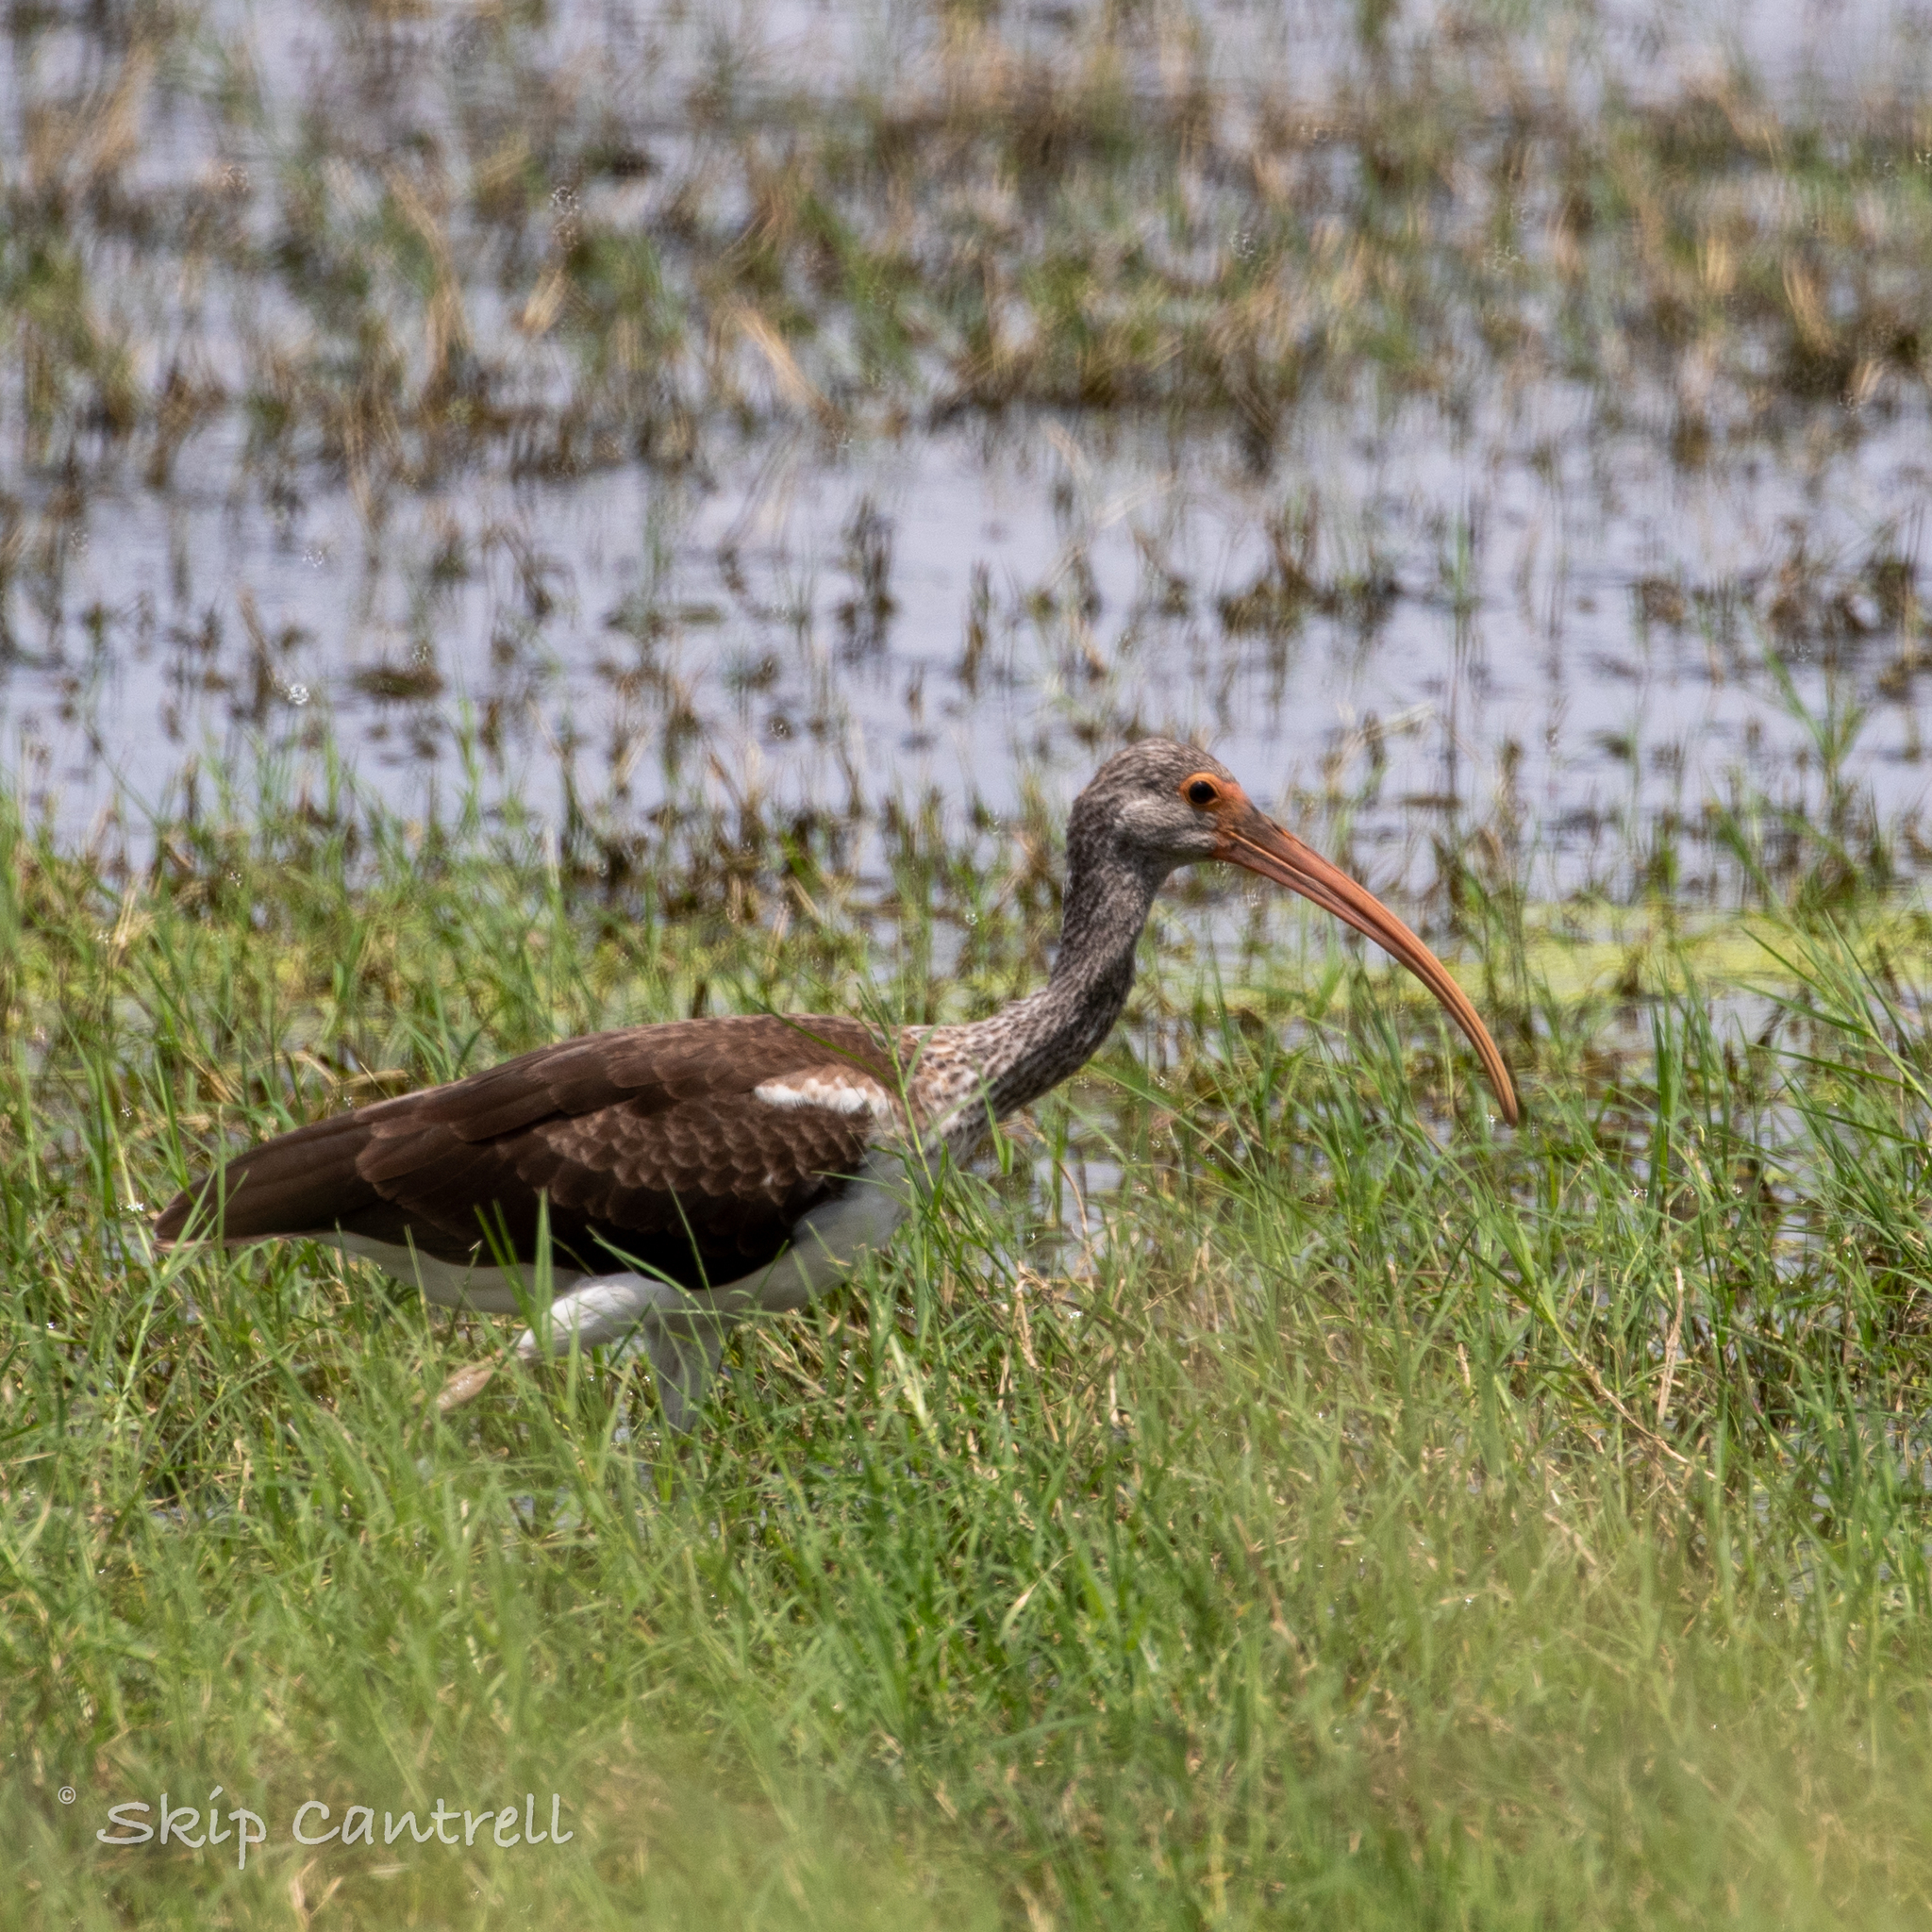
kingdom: Animalia
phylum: Chordata
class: Aves
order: Pelecaniformes
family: Threskiornithidae
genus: Eudocimus
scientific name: Eudocimus albus
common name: White ibis
